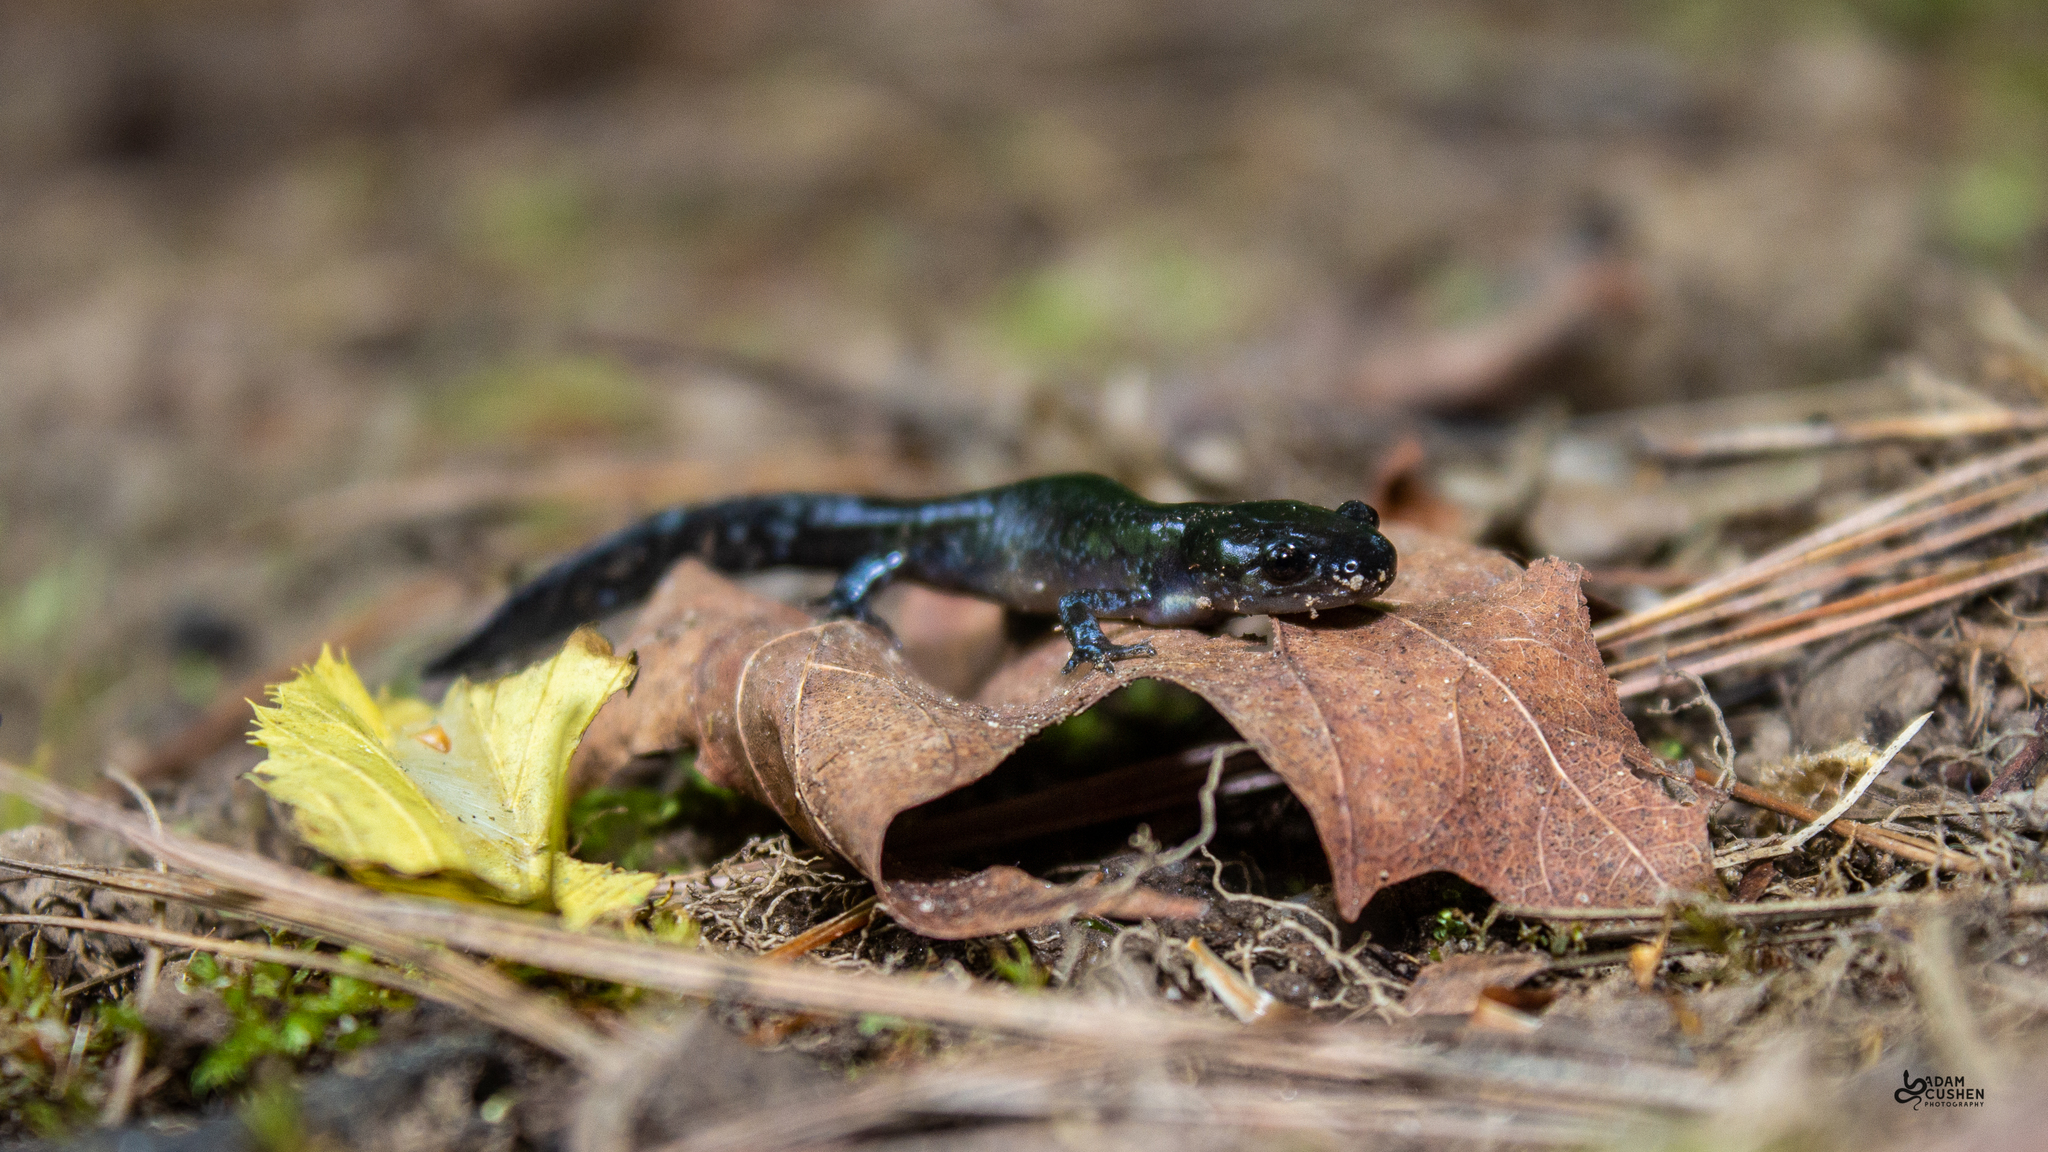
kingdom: Animalia
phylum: Chordata
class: Amphibia
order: Caudata
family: Ambystomatidae
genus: Ambystoma
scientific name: Ambystoma laterale
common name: Blue-spotted salamander
